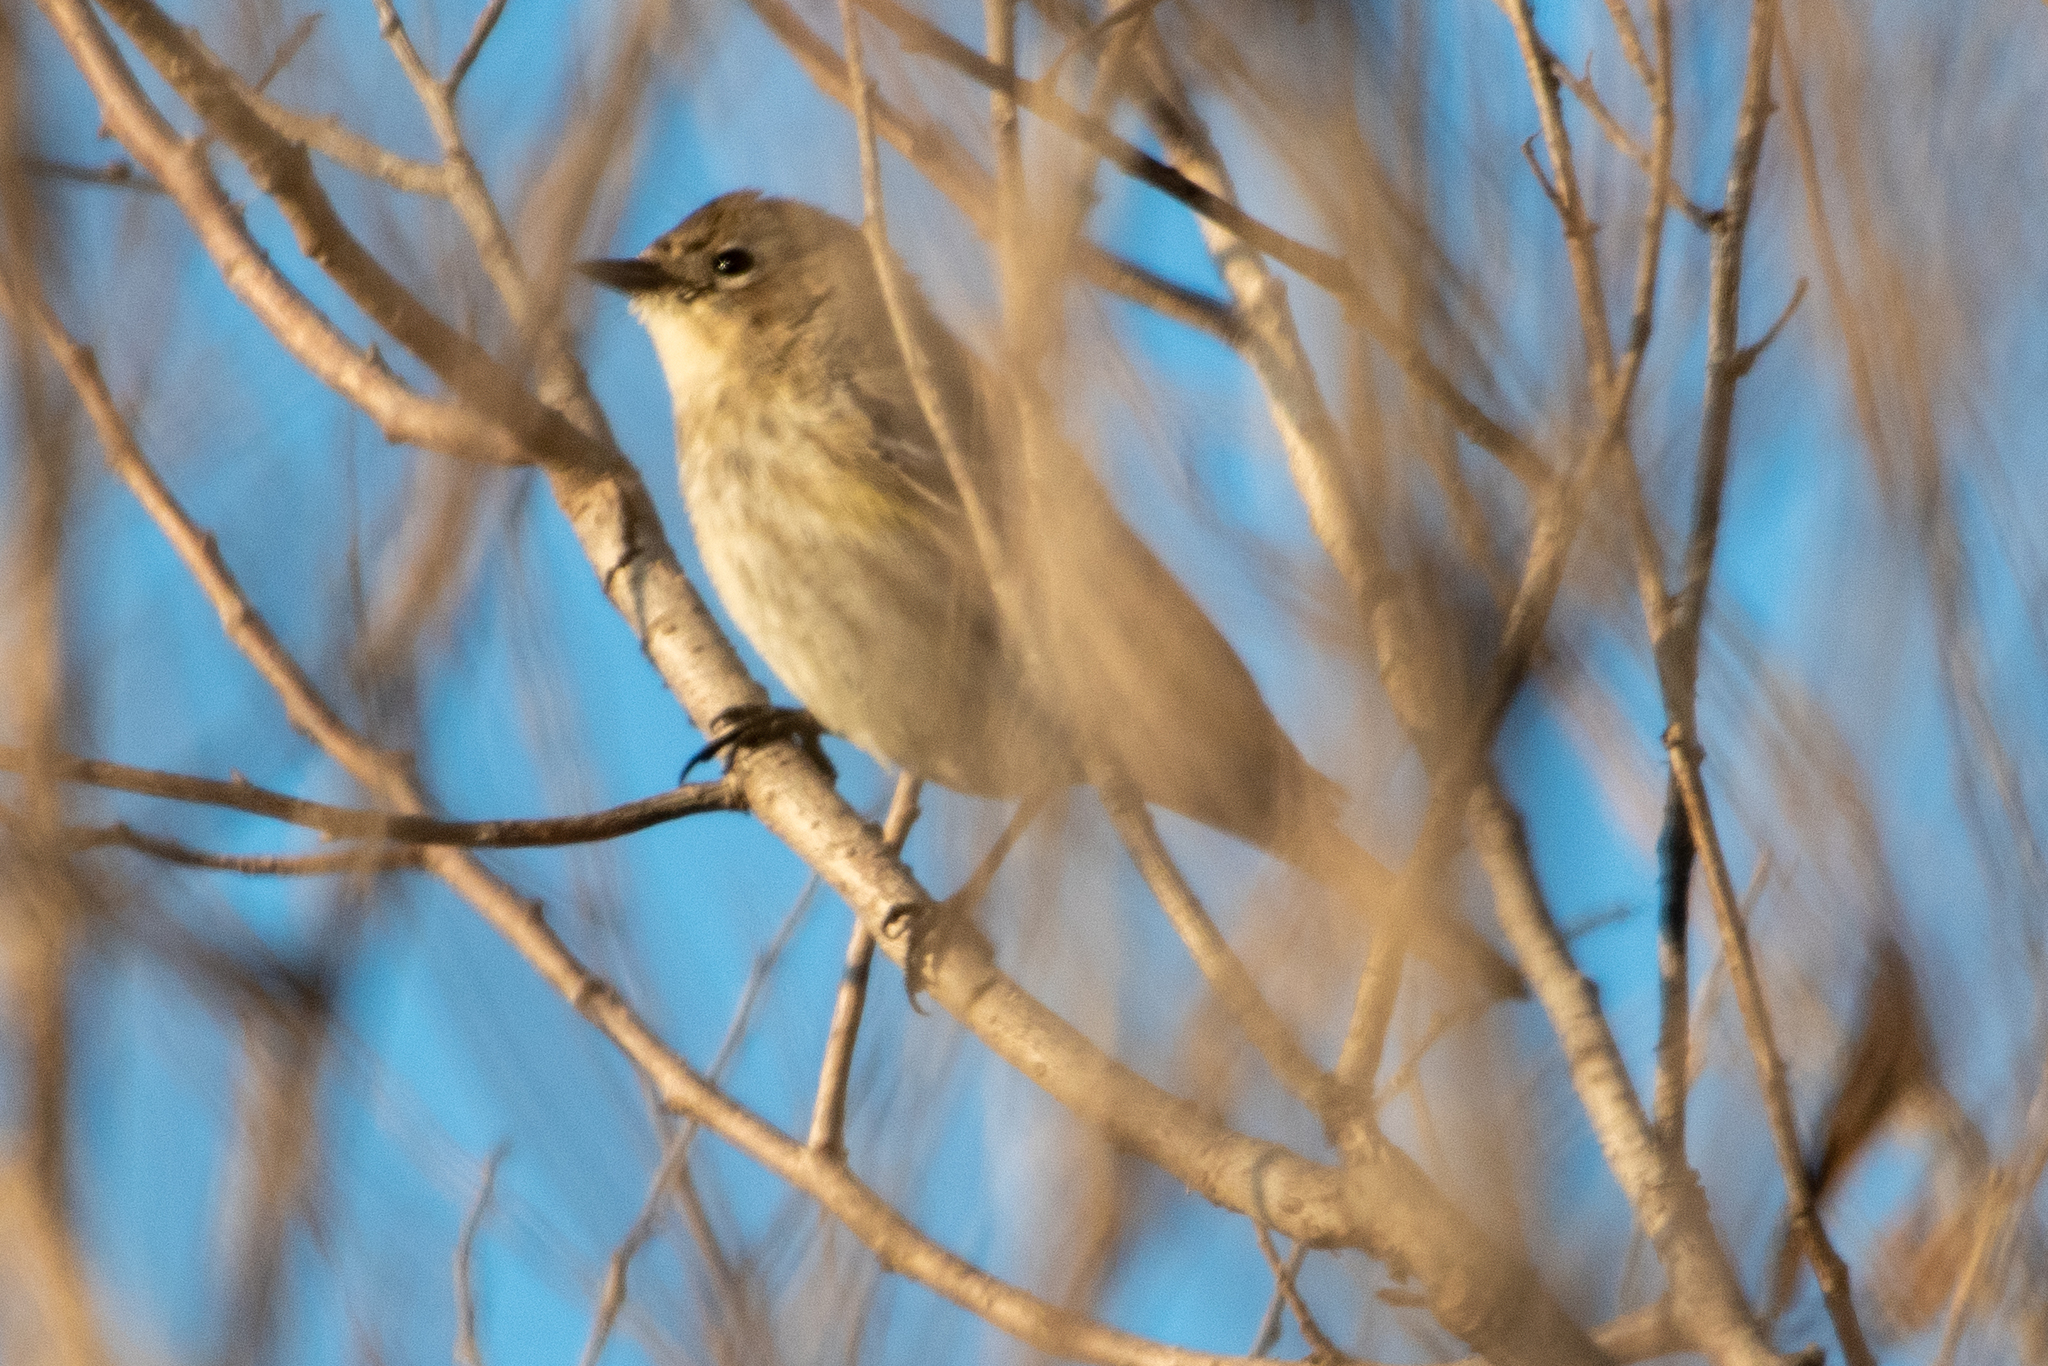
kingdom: Animalia
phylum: Chordata
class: Aves
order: Passeriformes
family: Parulidae
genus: Setophaga
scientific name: Setophaga coronata
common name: Myrtle warbler
